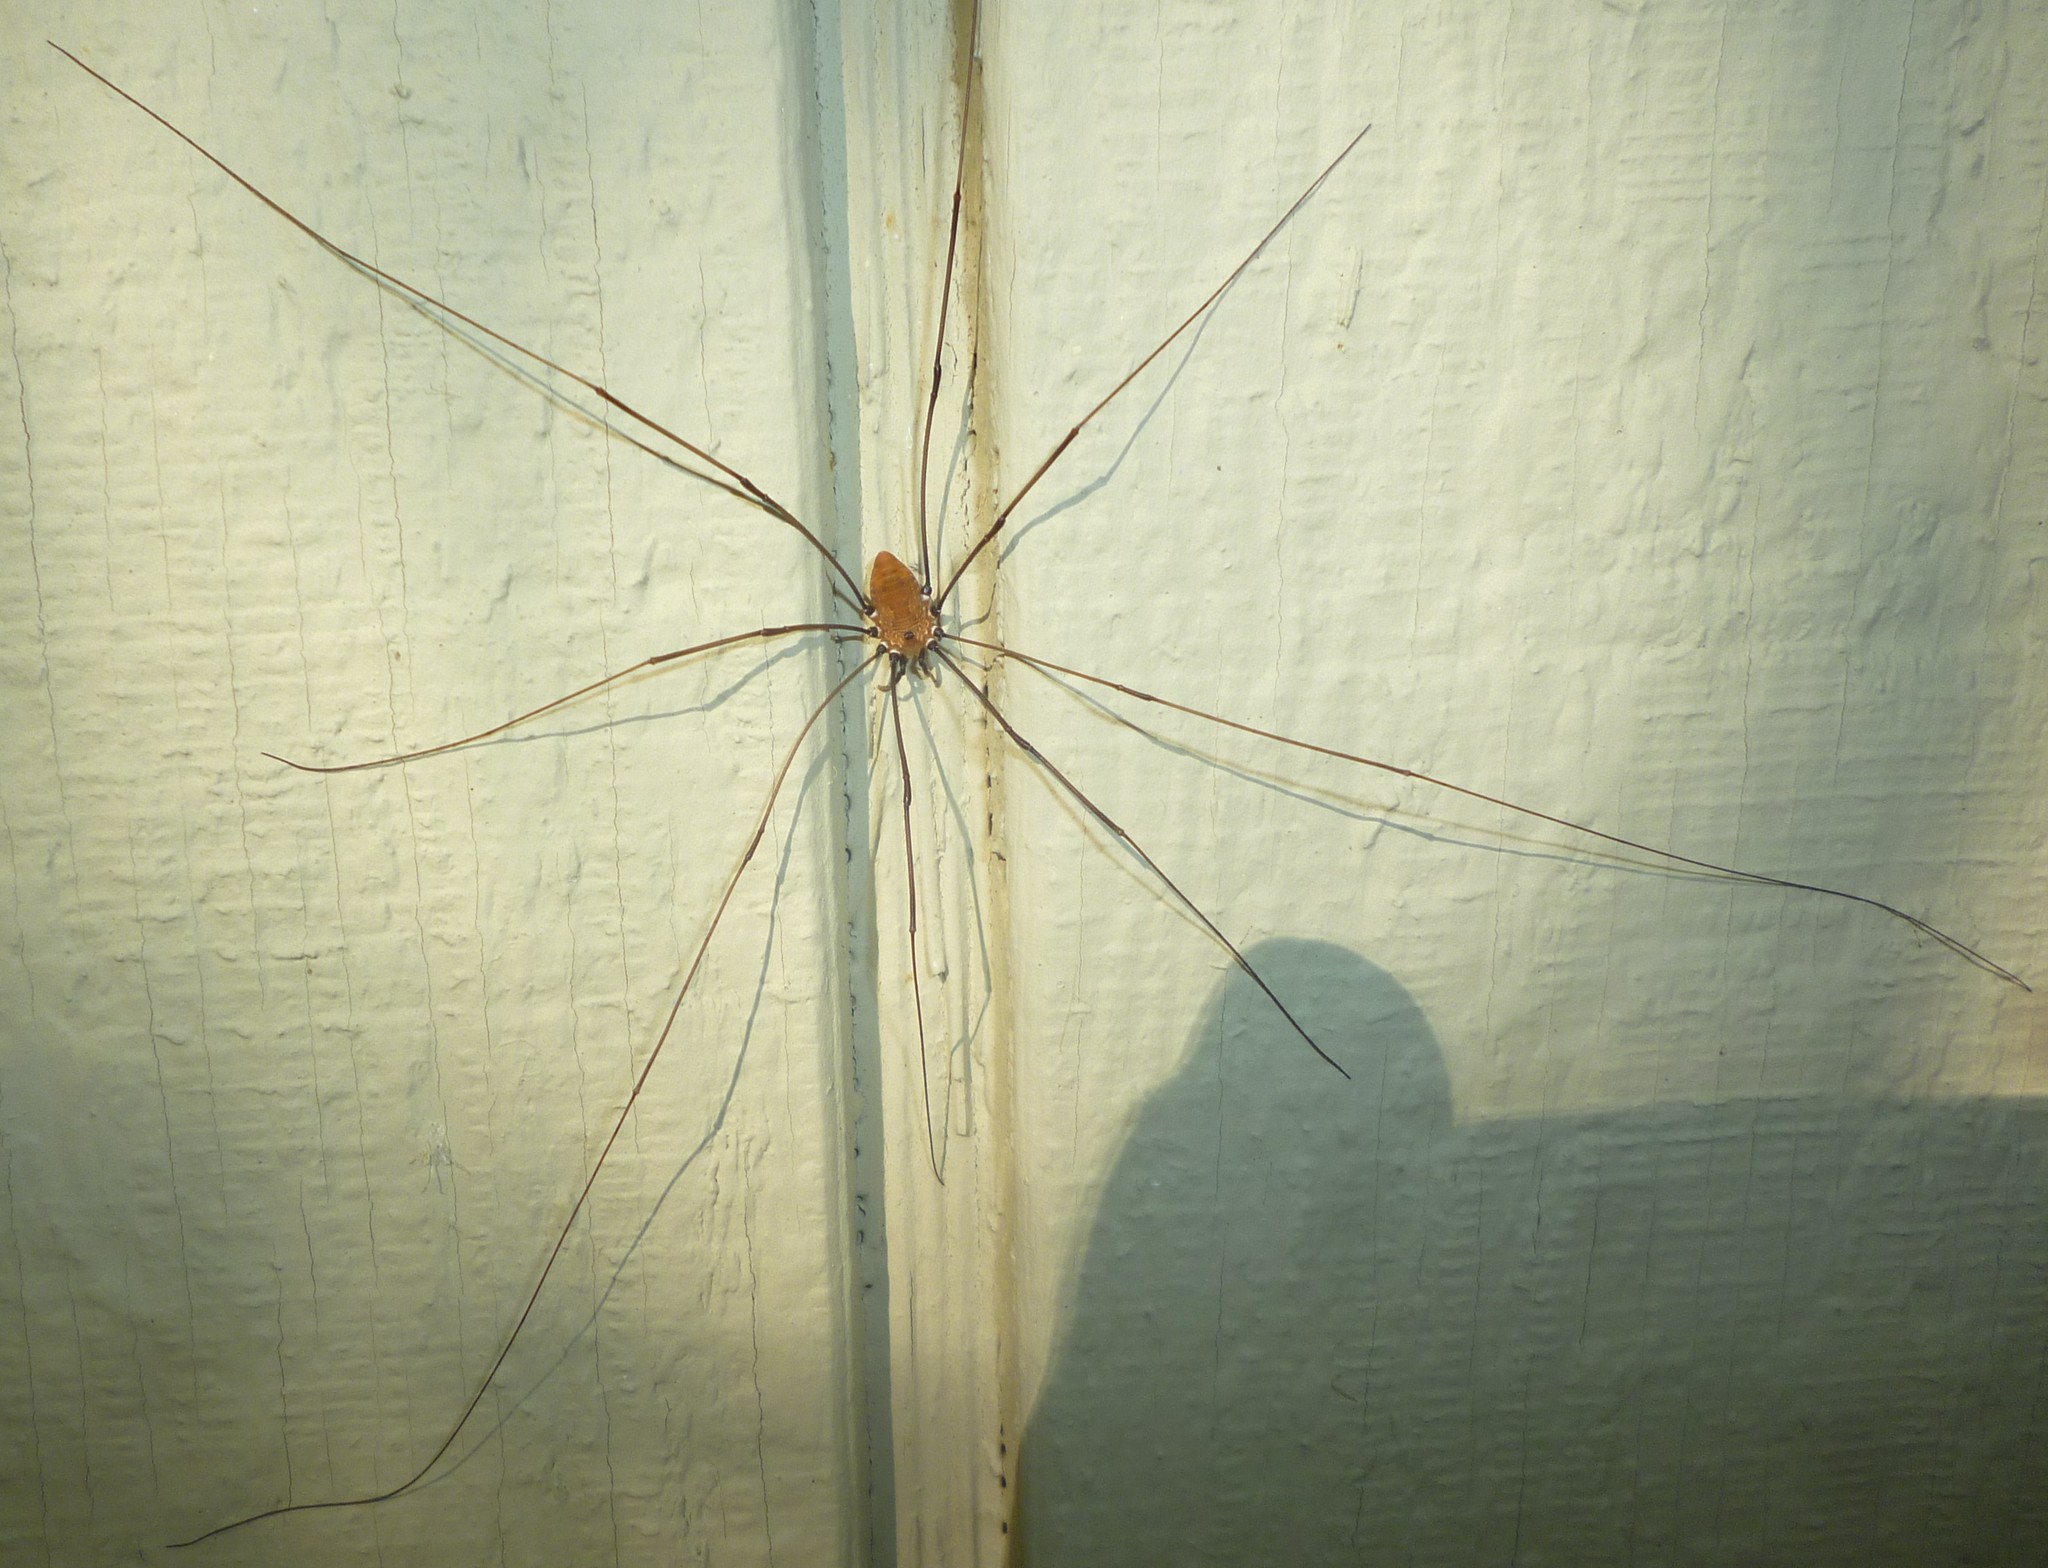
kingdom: Animalia
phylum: Arthropoda
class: Arachnida
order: Opiliones
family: Sclerosomatidae
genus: Leiobunum
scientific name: Leiobunum nigropalpi
